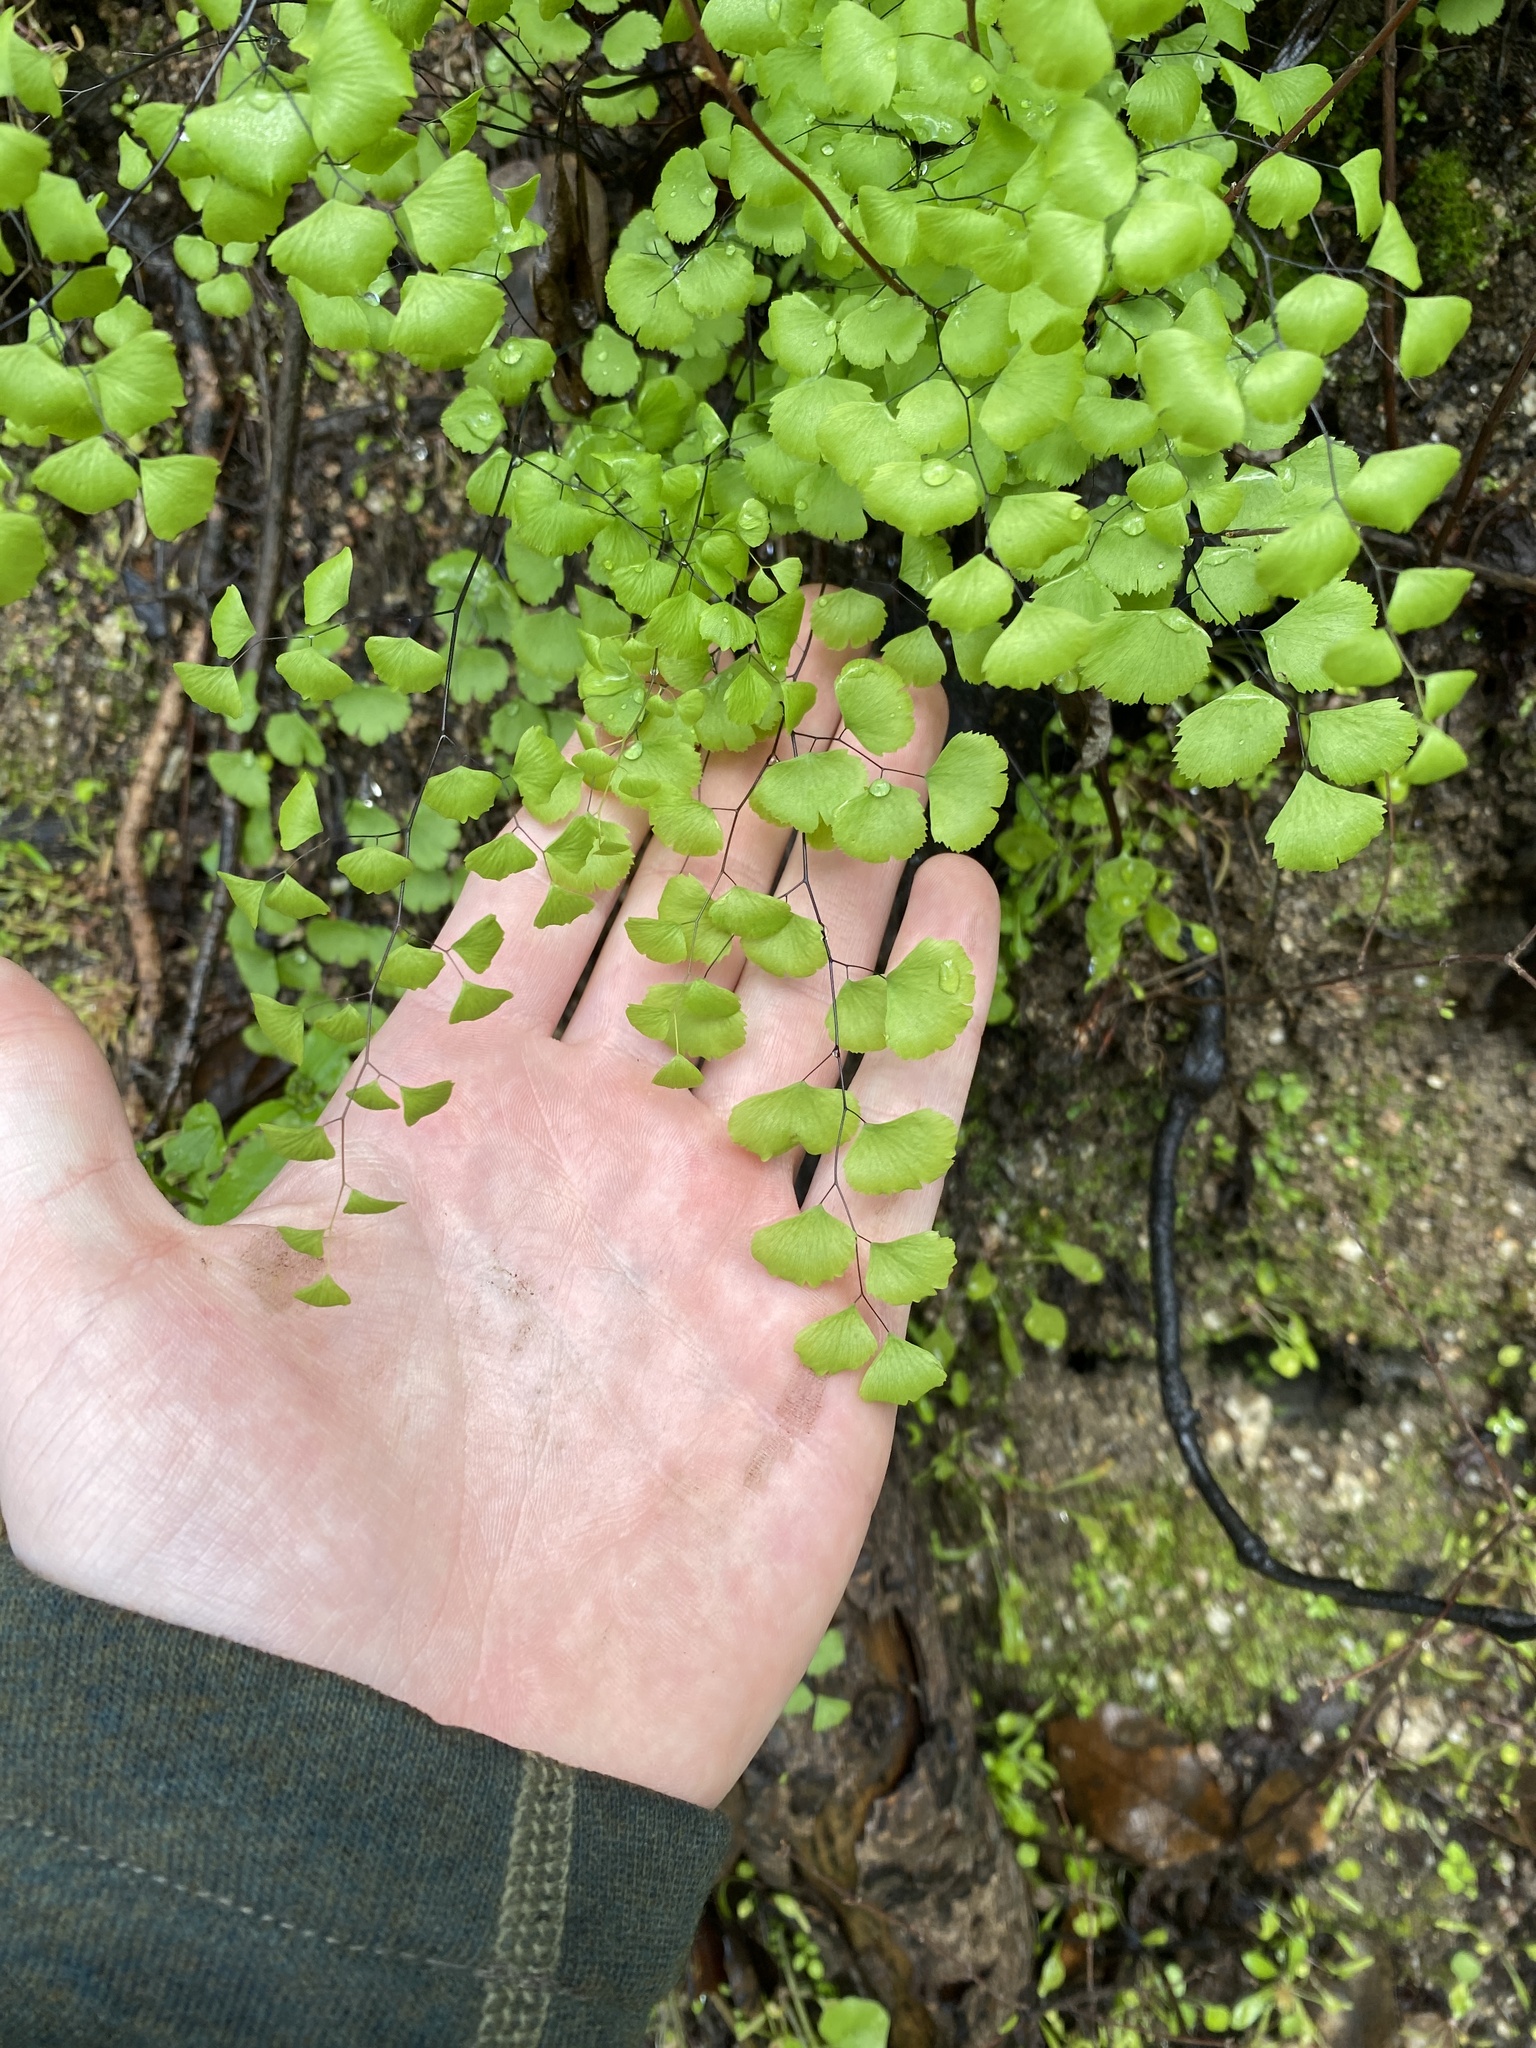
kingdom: Plantae
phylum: Tracheophyta
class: Polypodiopsida
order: Polypodiales
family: Pteridaceae
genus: Adiantum
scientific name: Adiantum jordanii
